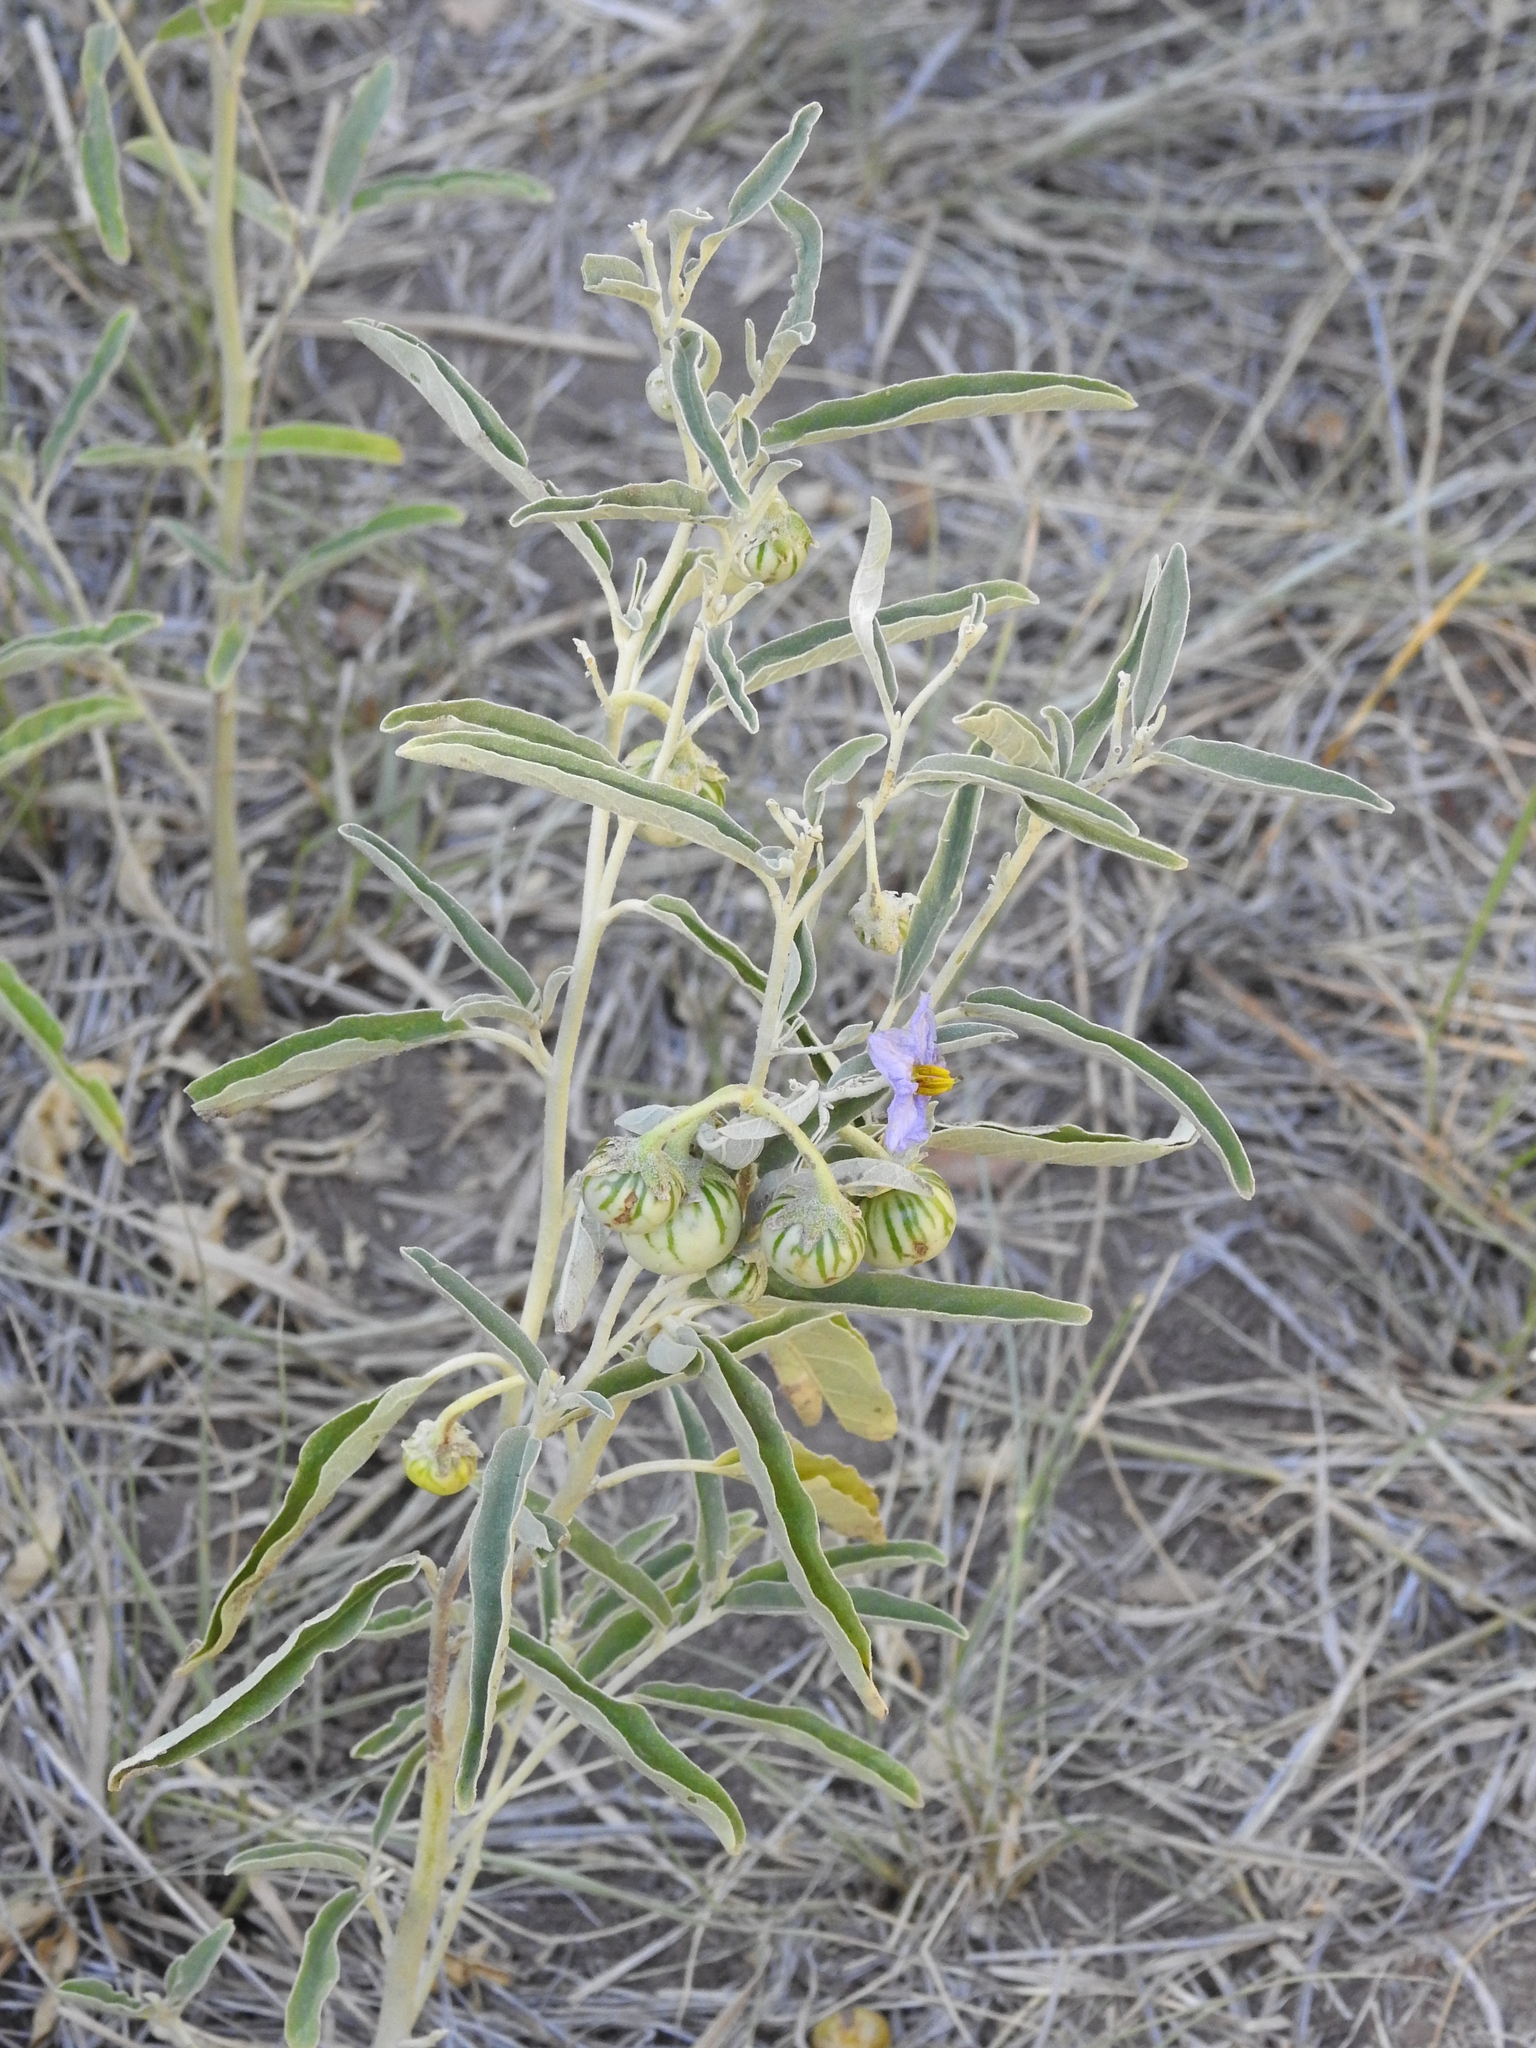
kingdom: Plantae
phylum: Tracheophyta
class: Magnoliopsida
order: Solanales
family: Solanaceae
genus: Solanum
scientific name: Solanum elaeagnifolium
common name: Silverleaf nightshade
